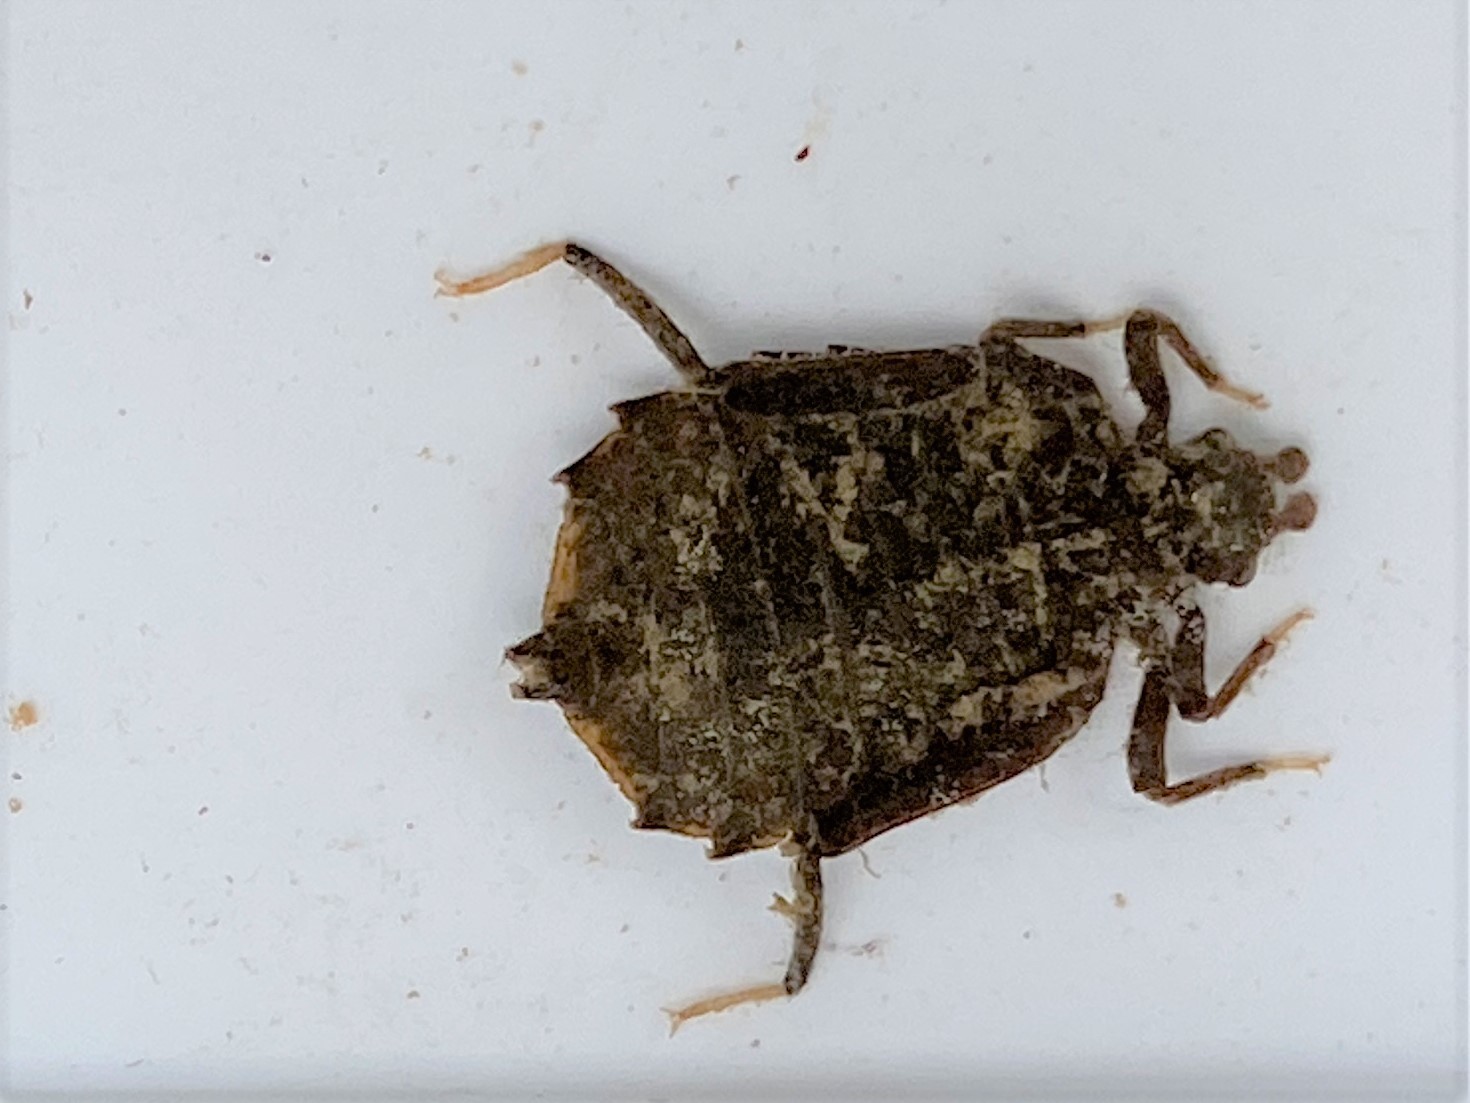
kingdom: Animalia
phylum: Arthropoda
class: Insecta
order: Odonata
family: Gomphidae
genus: Hagenius
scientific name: Hagenius brevistylus
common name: Dragonhunter
